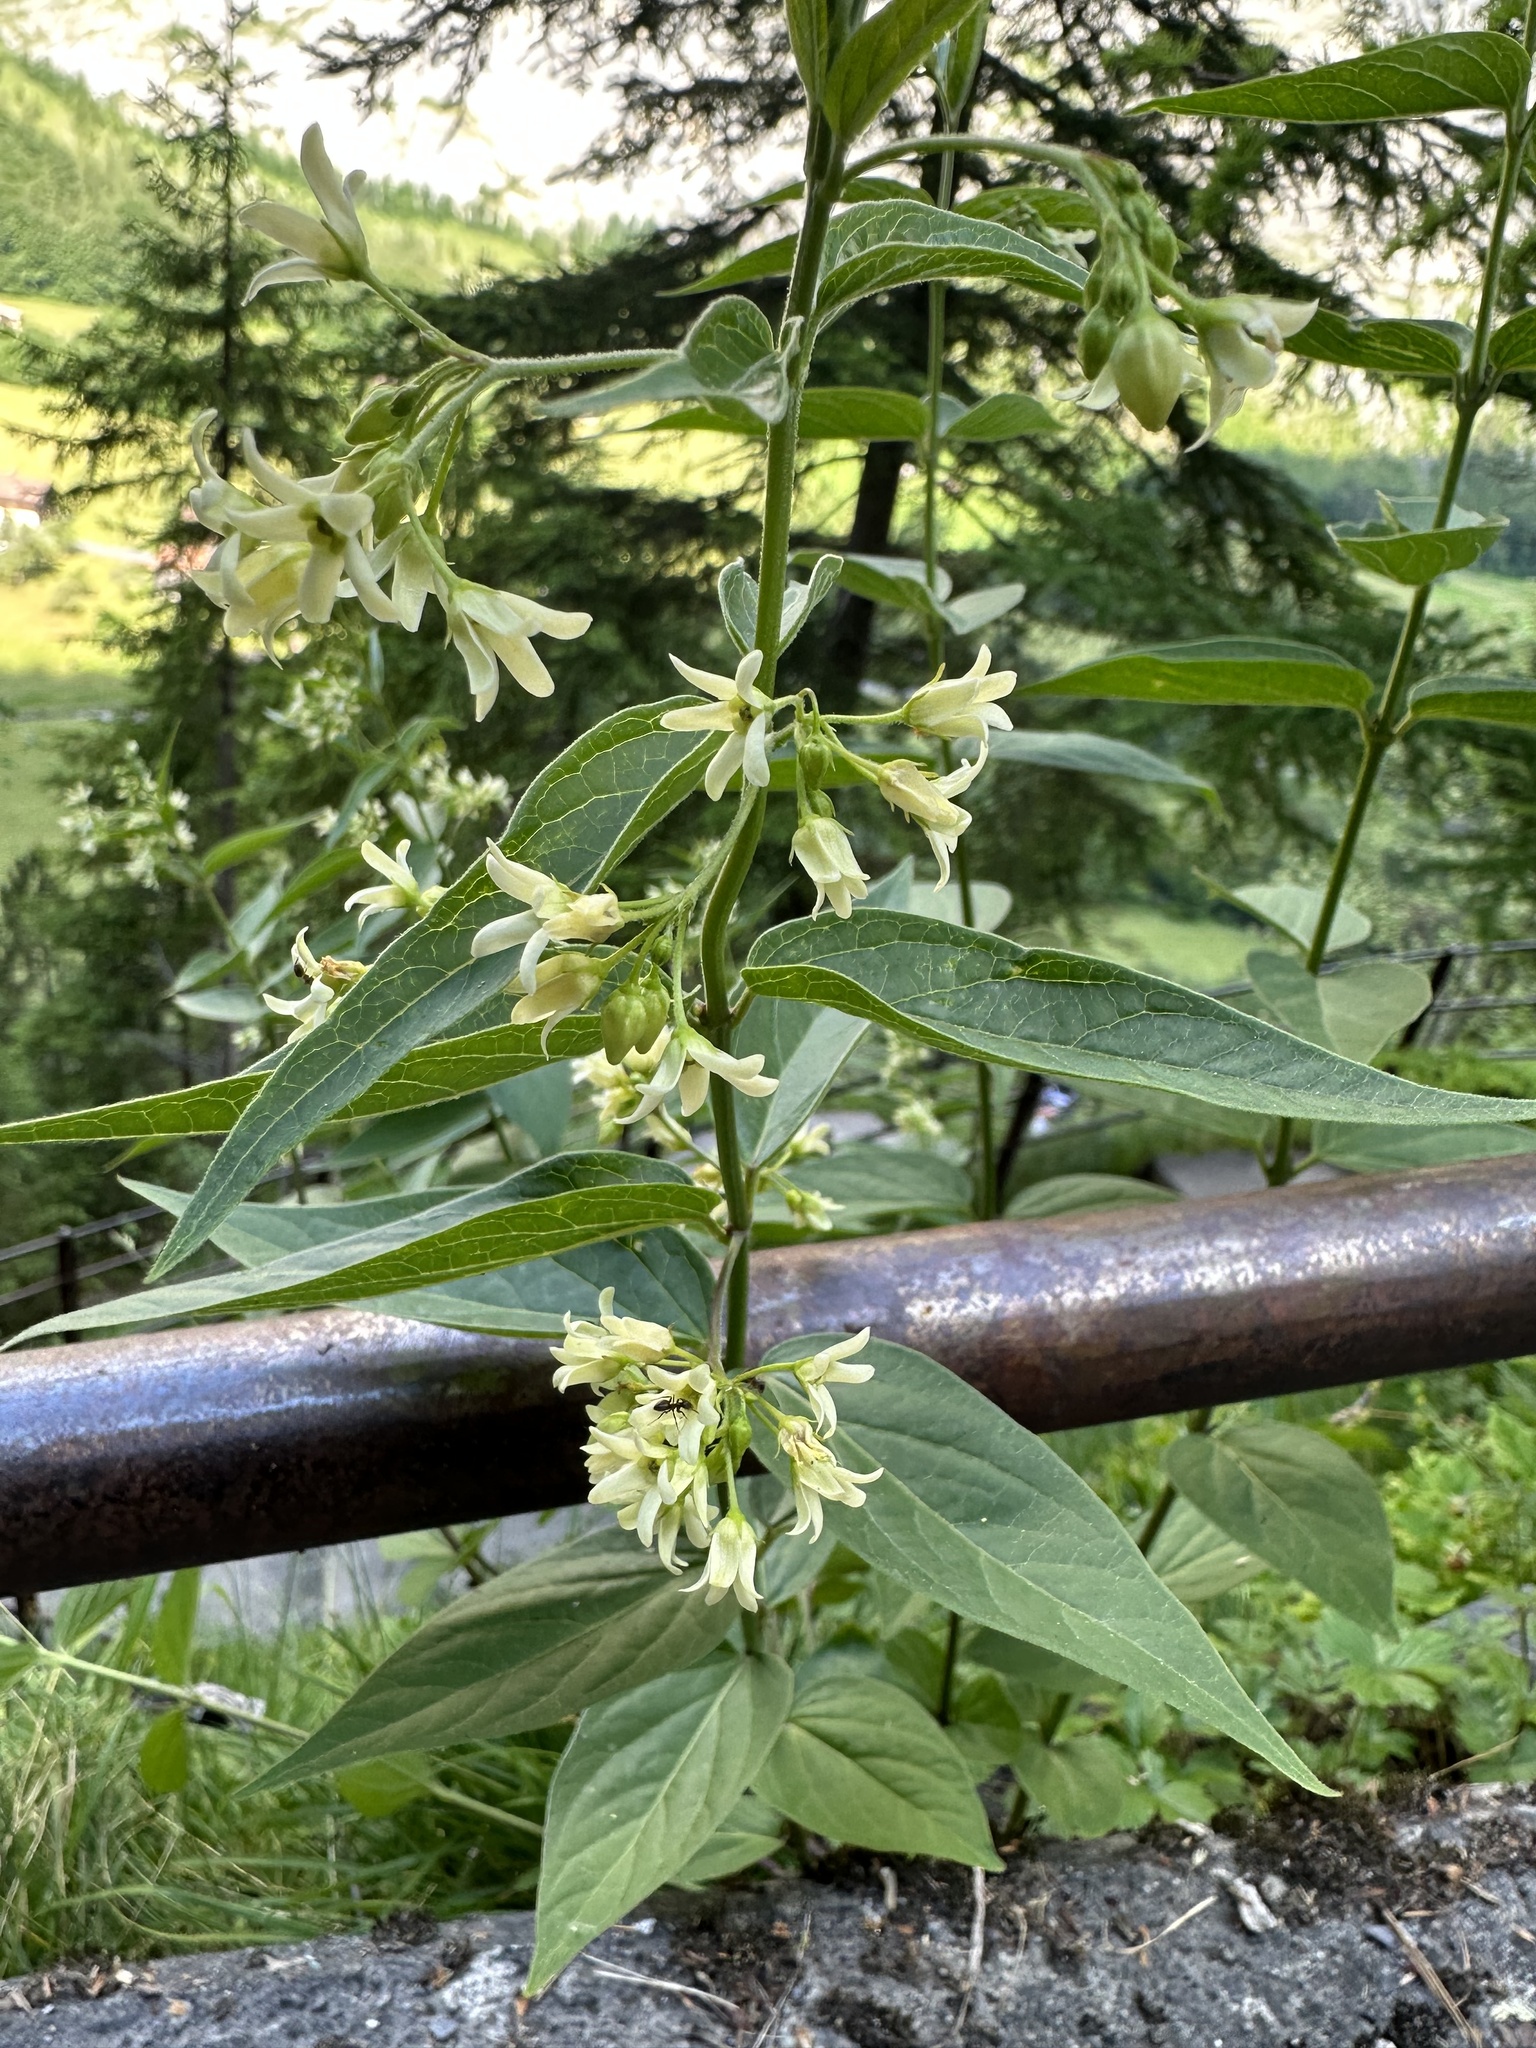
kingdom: Plantae
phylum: Tracheophyta
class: Magnoliopsida
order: Gentianales
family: Apocynaceae
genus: Vincetoxicum
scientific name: Vincetoxicum hirundinaria
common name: White swallowwort
